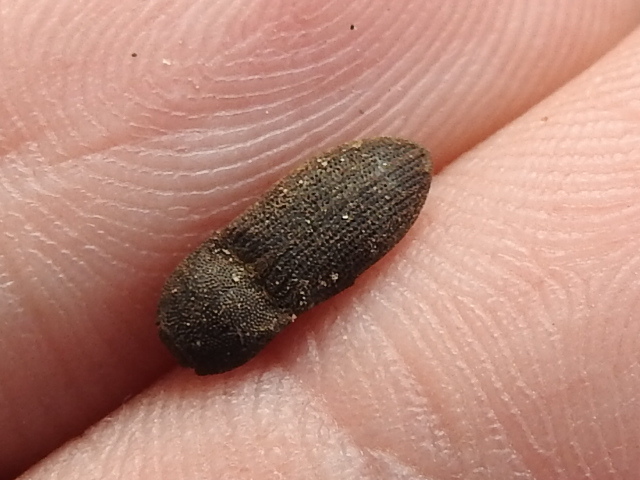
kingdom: Animalia
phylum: Arthropoda
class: Insecta
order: Coleoptera
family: Elateridae
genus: Agrypnus
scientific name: Agrypnus rectangularis
